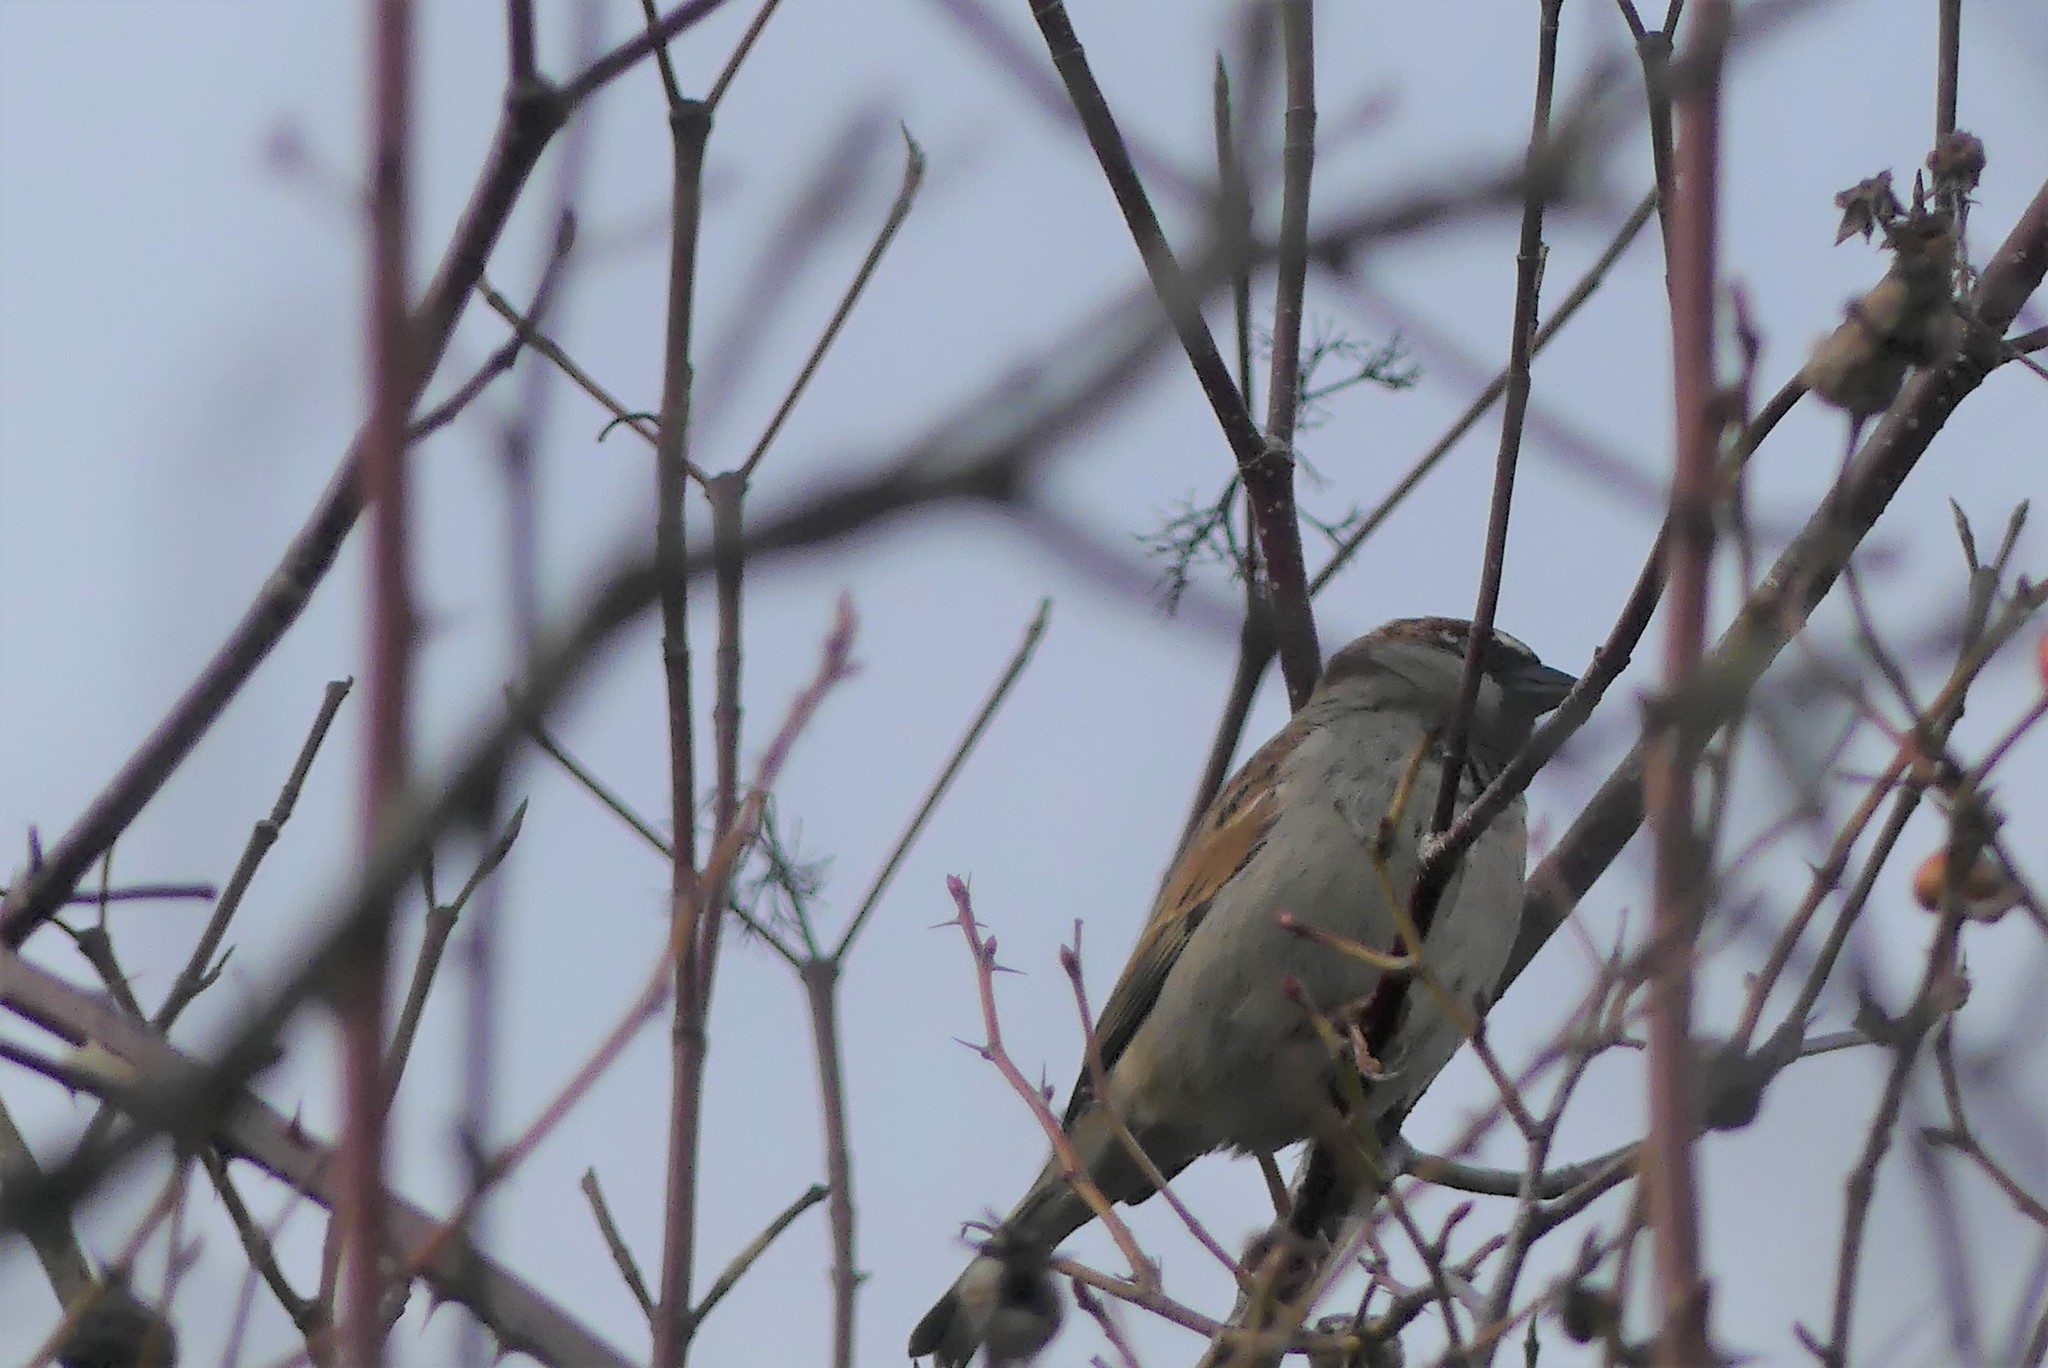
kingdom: Animalia
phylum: Chordata
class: Aves
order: Passeriformes
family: Passeridae
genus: Passer
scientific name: Passer domesticus
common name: House sparrow
